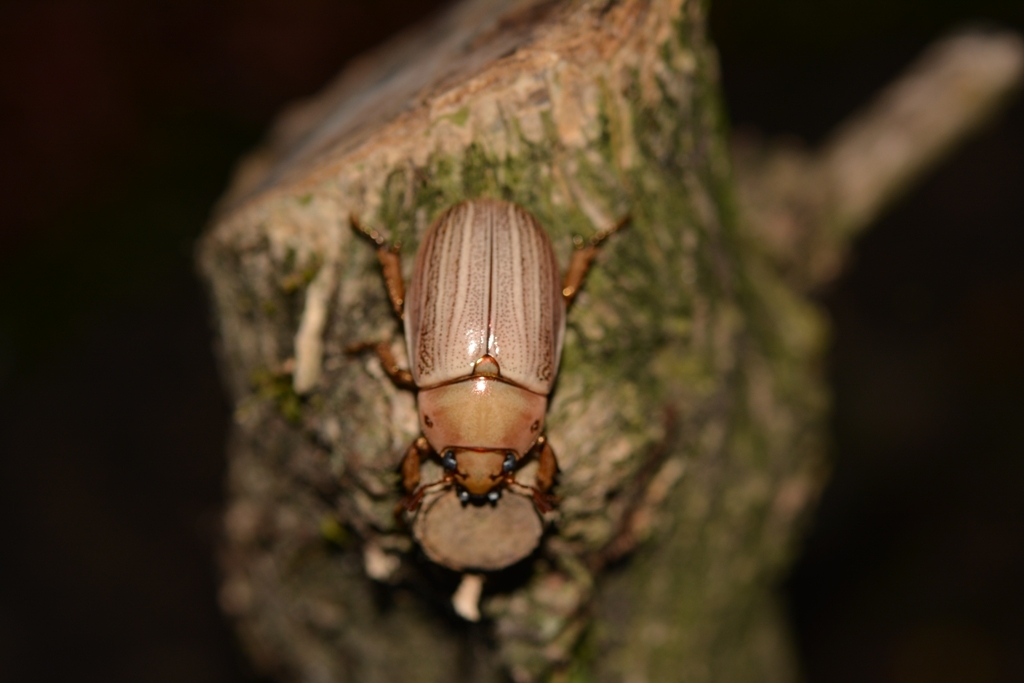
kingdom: Animalia
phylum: Arthropoda
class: Insecta
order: Coleoptera
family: Scarabaeidae
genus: Pelidnota
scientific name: Pelidnota virescens
